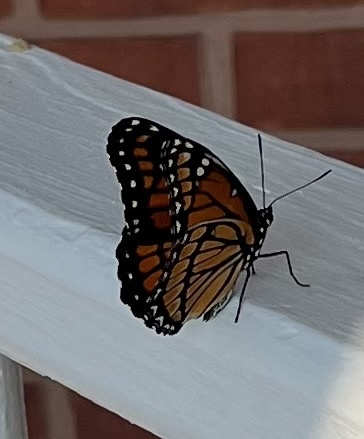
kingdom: Animalia
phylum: Arthropoda
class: Insecta
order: Lepidoptera
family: Nymphalidae
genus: Limenitis
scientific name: Limenitis archippus
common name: Viceroy
